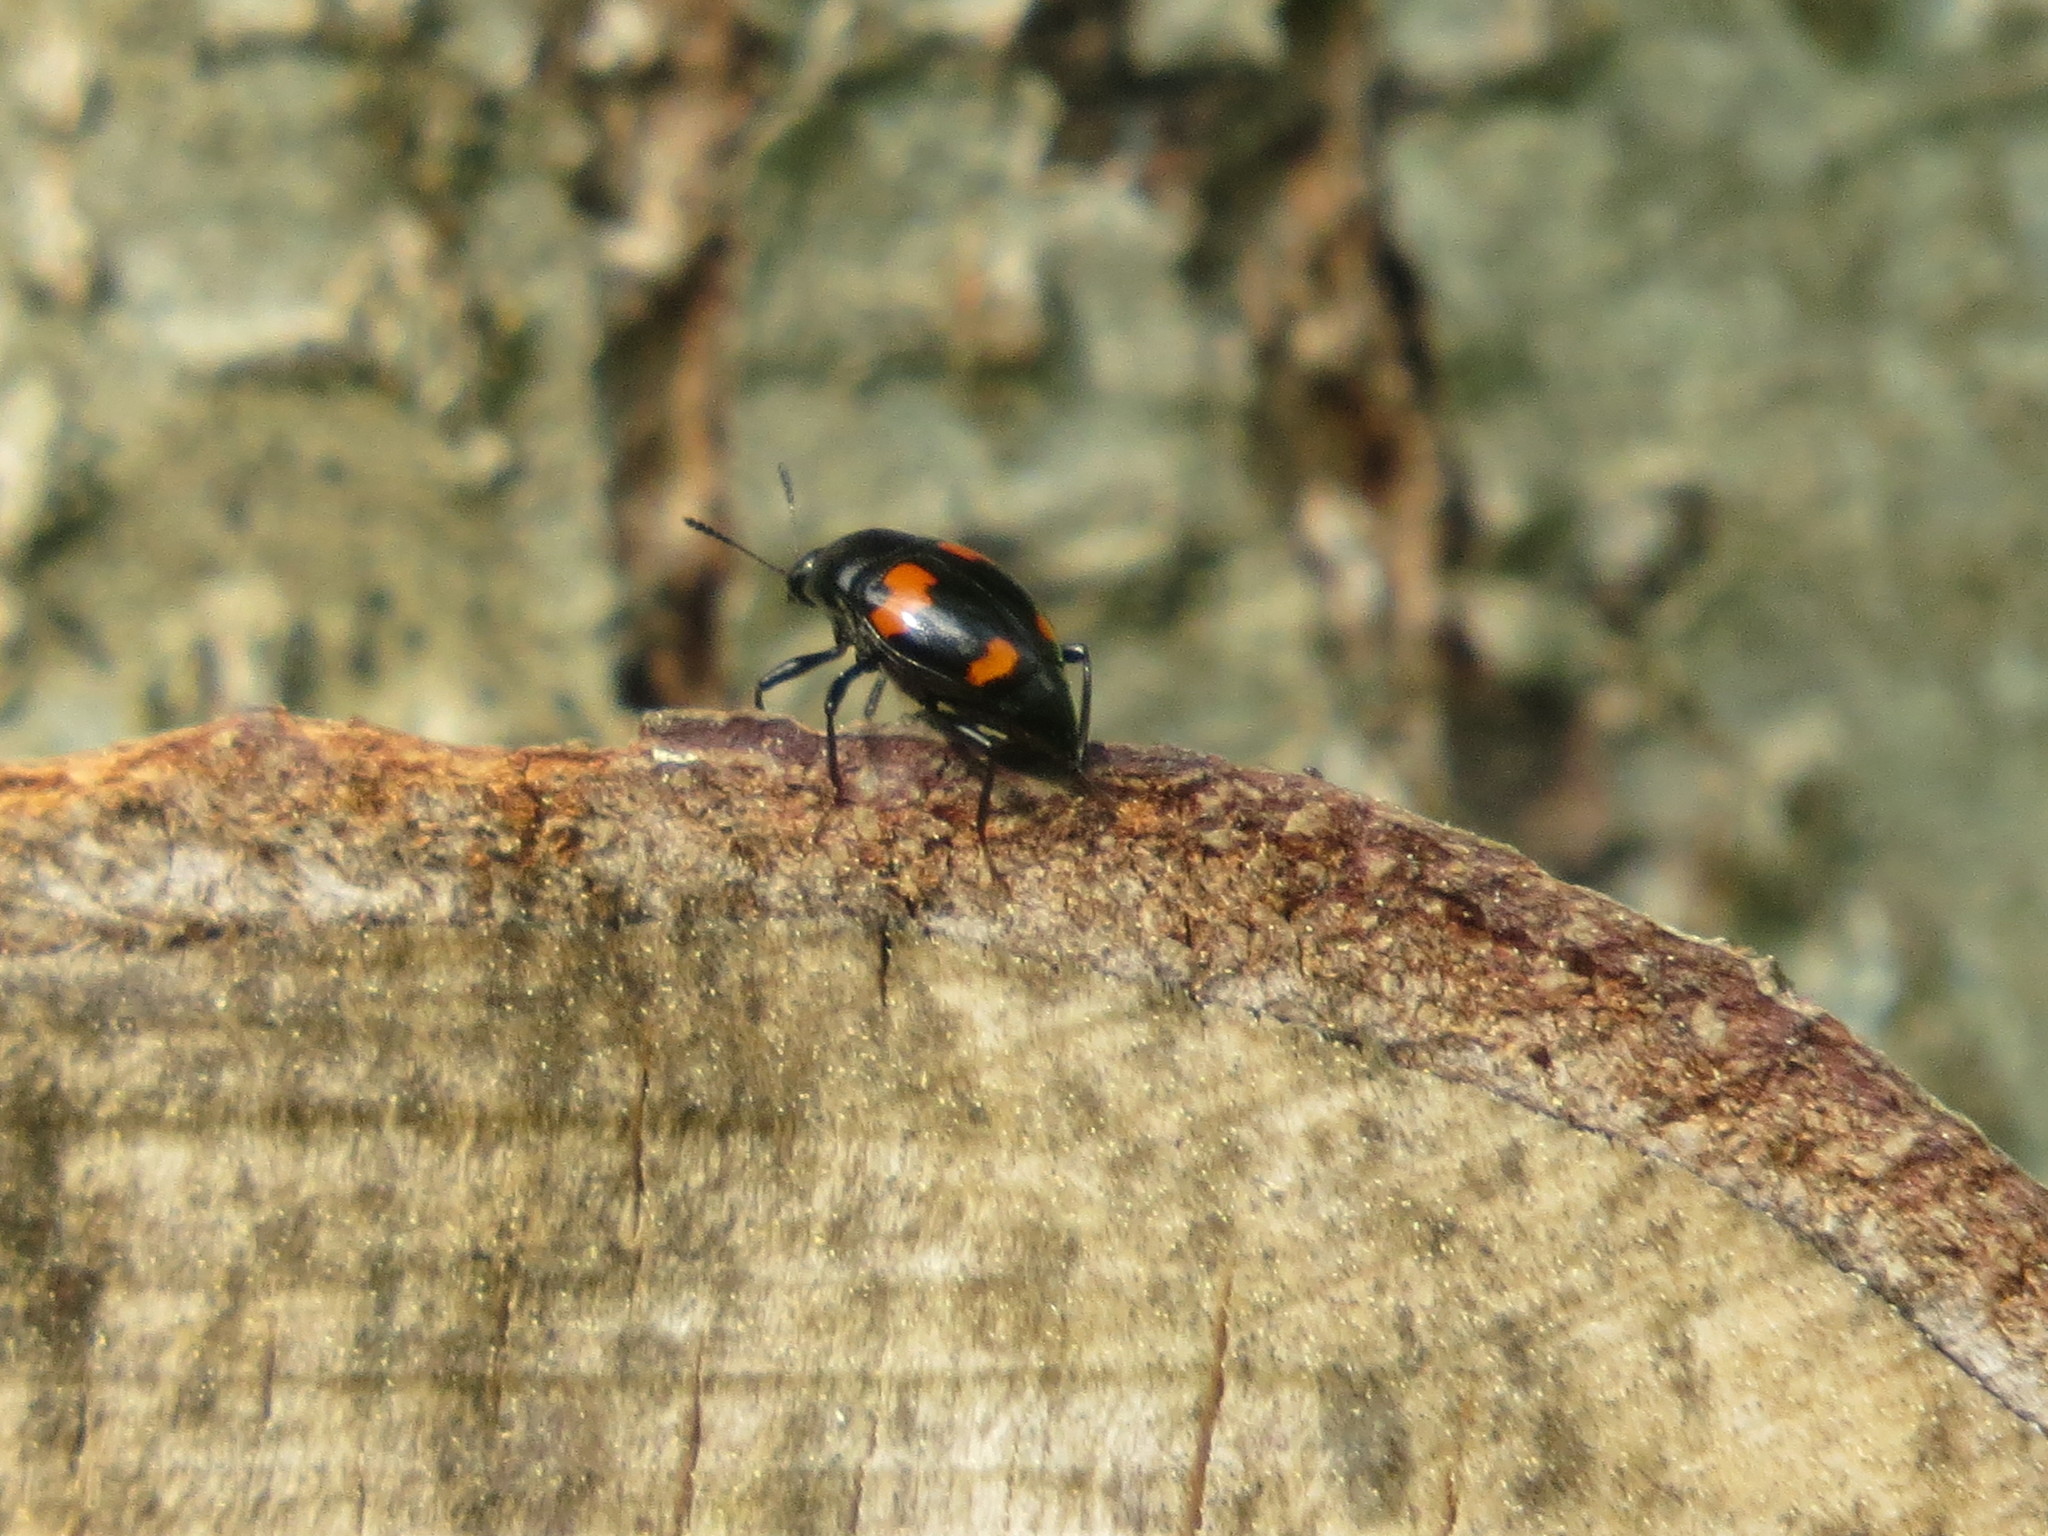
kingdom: Animalia
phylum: Arthropoda
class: Insecta
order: Coleoptera
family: Staphylinidae
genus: Scaphidium
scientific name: Scaphidium quadrimaculatum
